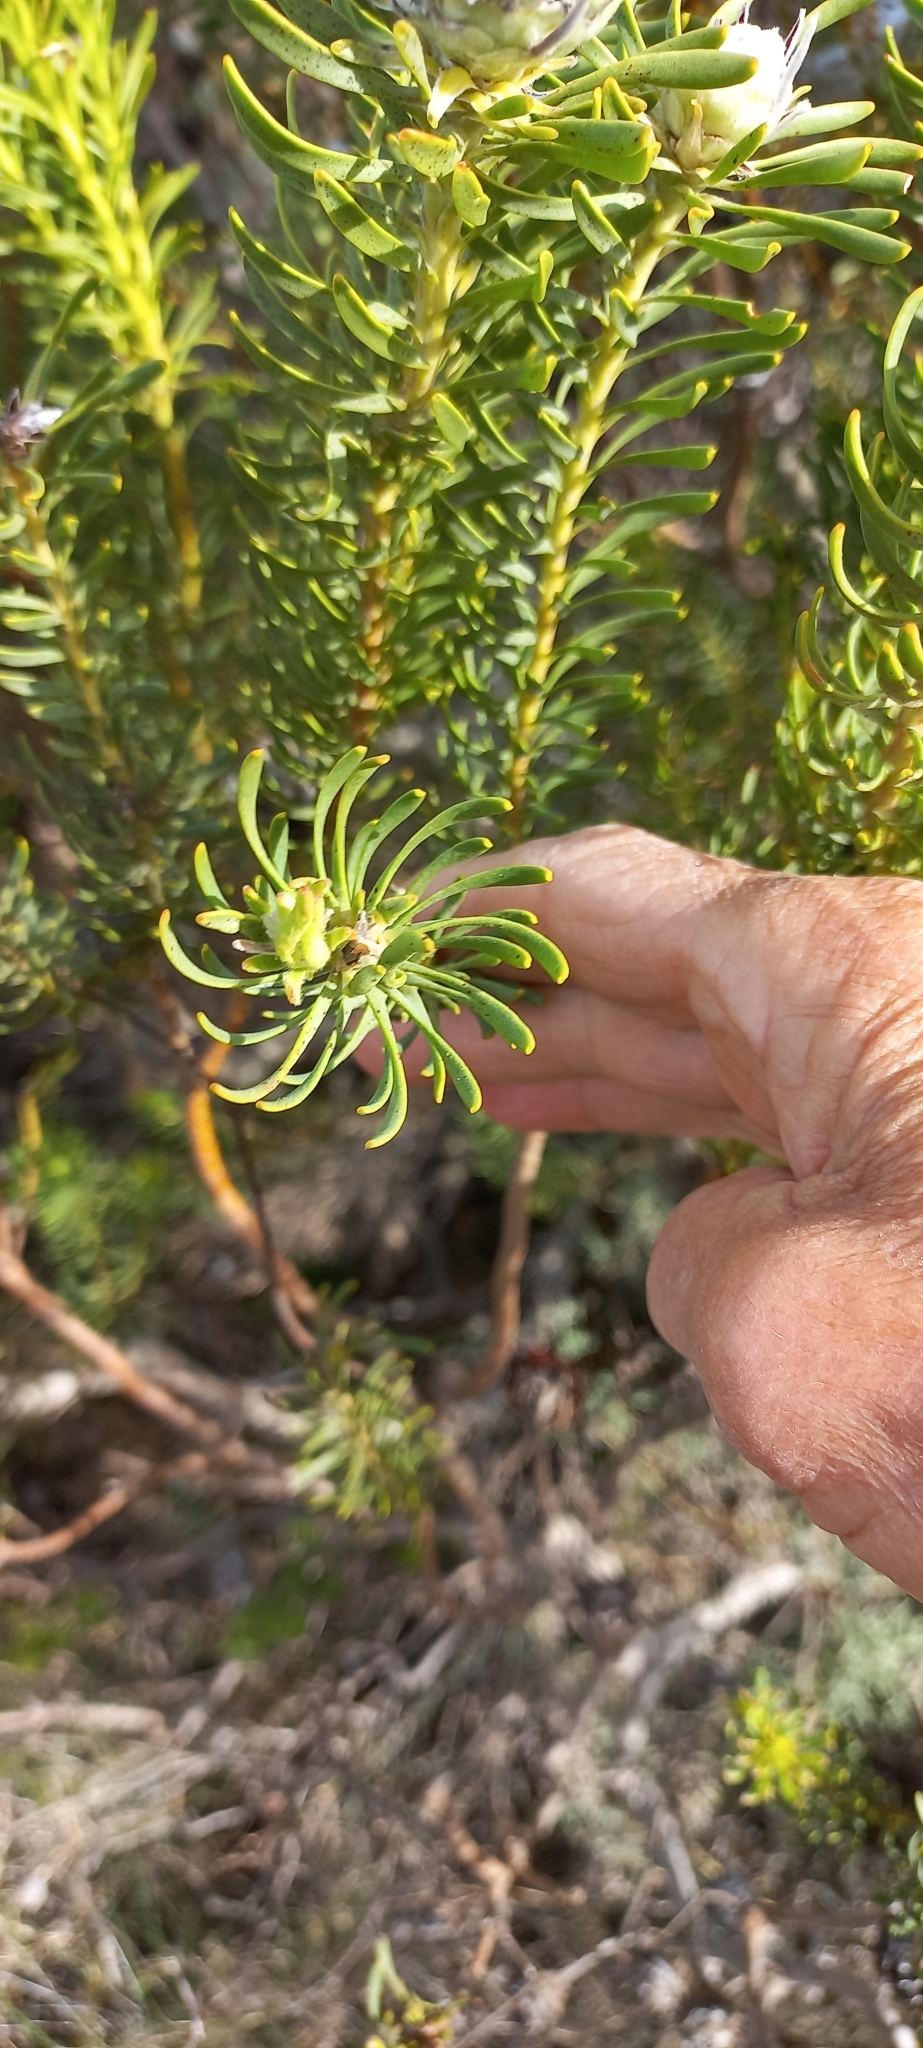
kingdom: Plantae
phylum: Tracheophyta
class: Magnoliopsida
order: Proteales
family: Proteaceae
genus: Leucadendron
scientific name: Leucadendron linifolium
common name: Line-leaf conebush
